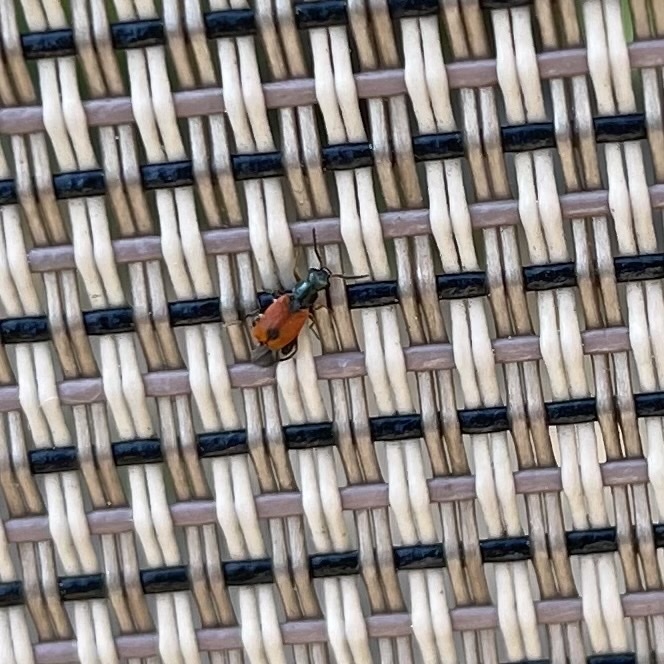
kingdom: Animalia
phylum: Arthropoda
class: Insecta
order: Coleoptera
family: Melyridae
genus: Anthocomus
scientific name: Anthocomus equestris
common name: Black-banded soft-winged flower beetle
